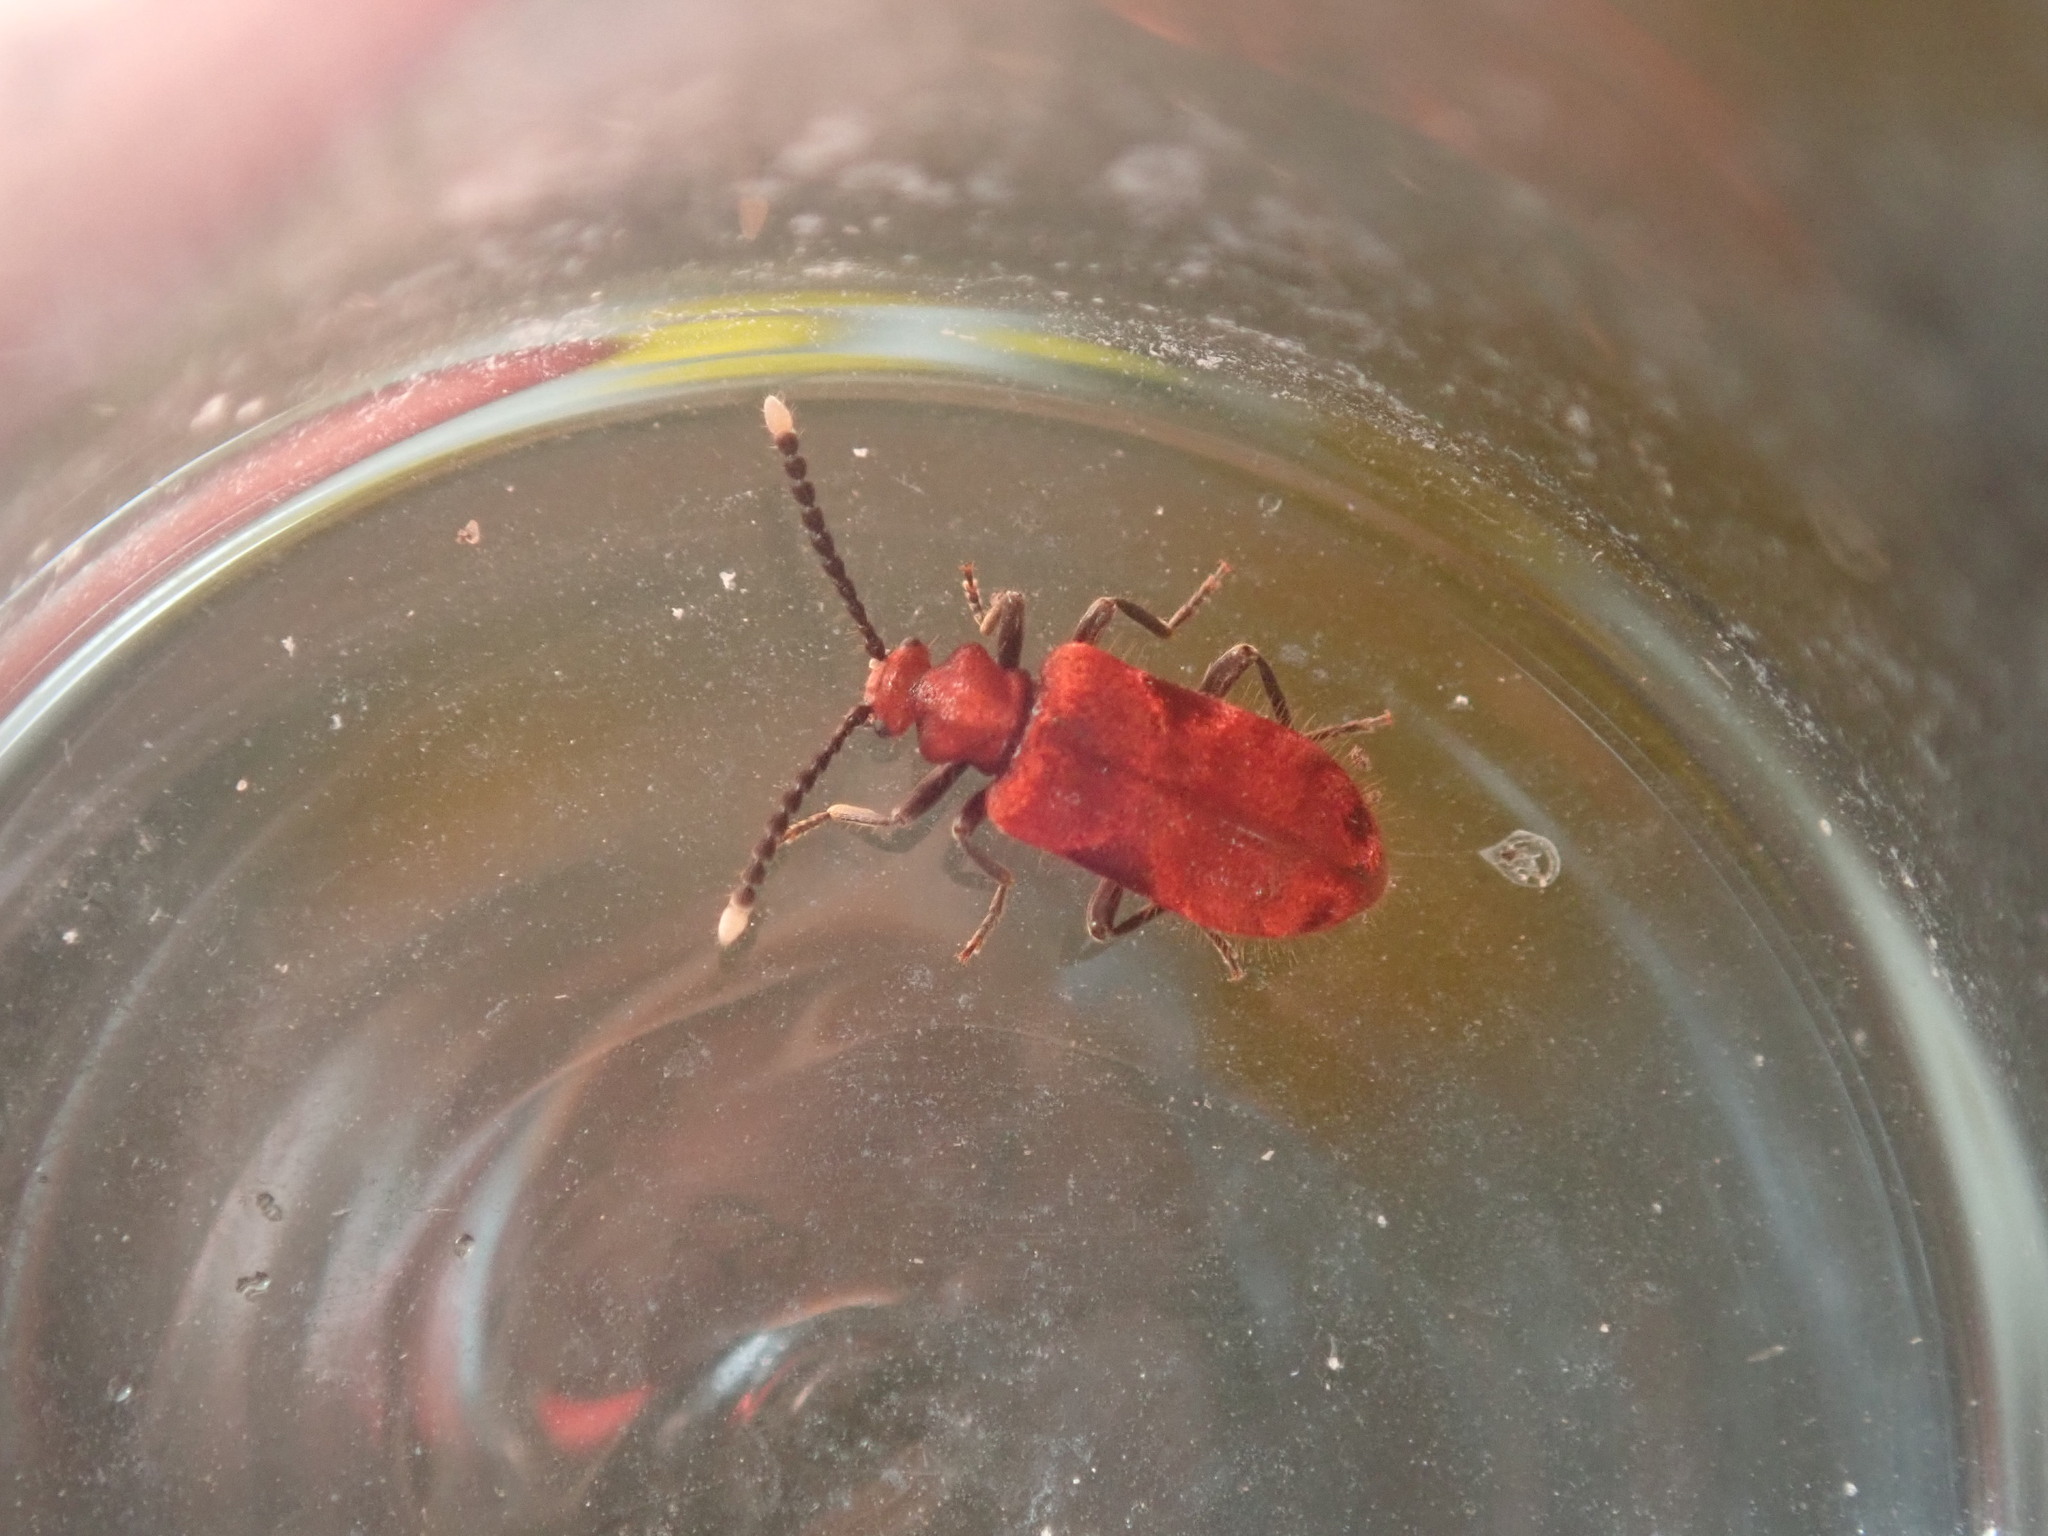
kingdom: Animalia
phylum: Arthropoda
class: Insecta
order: Coleoptera
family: Anthicidae
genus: Lemodes
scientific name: Lemodes
